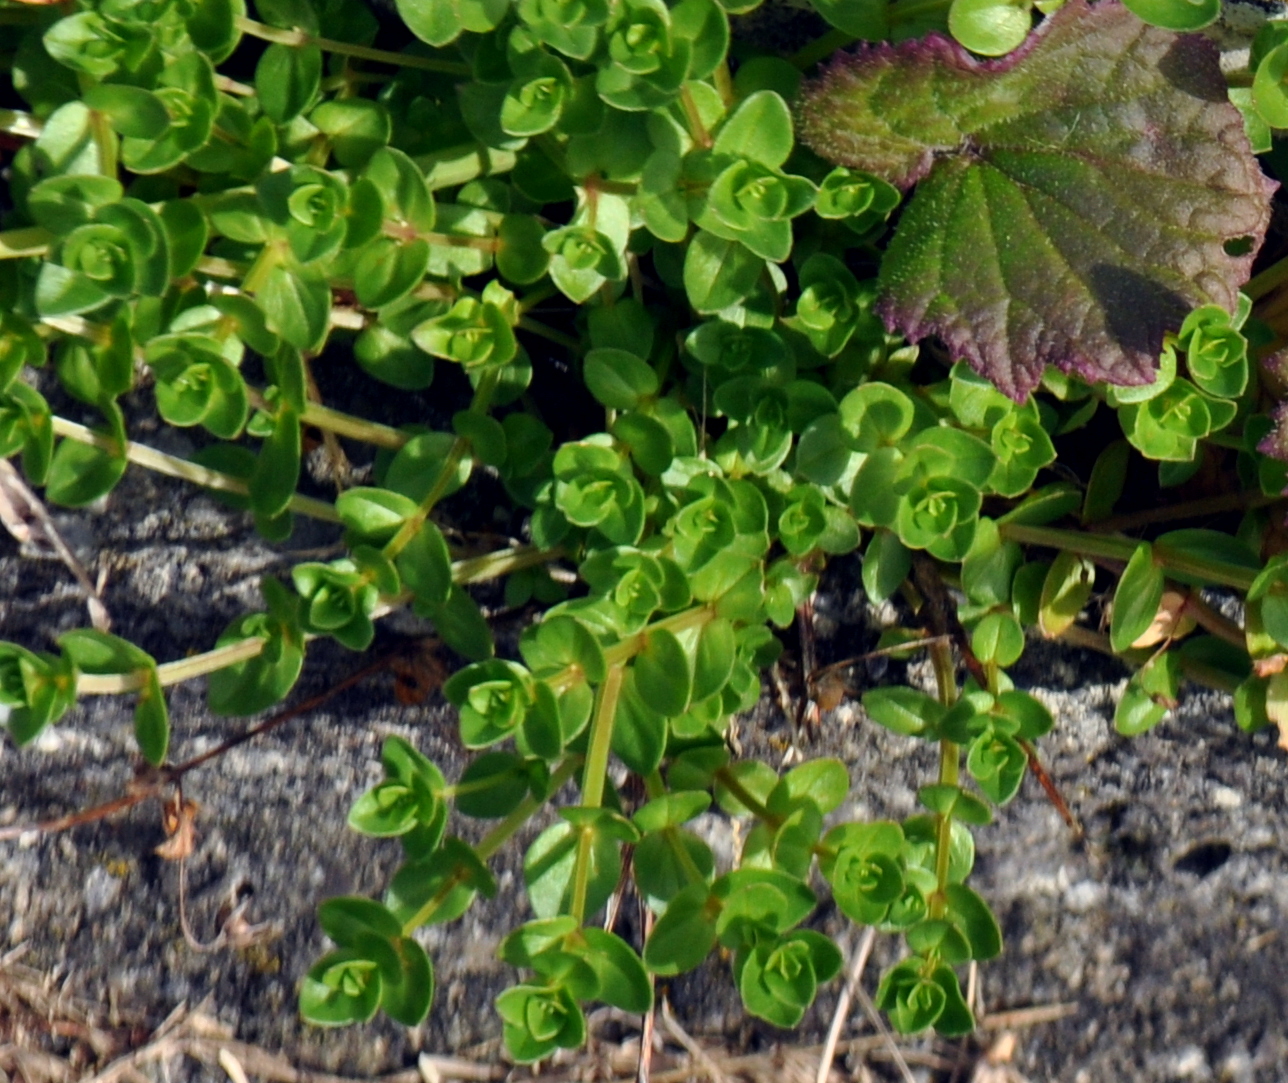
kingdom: Plantae
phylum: Tracheophyta
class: Magnoliopsida
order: Ericales
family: Primulaceae
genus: Lysimachia
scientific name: Lysimachia arvensis
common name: Scarlet pimpernel
